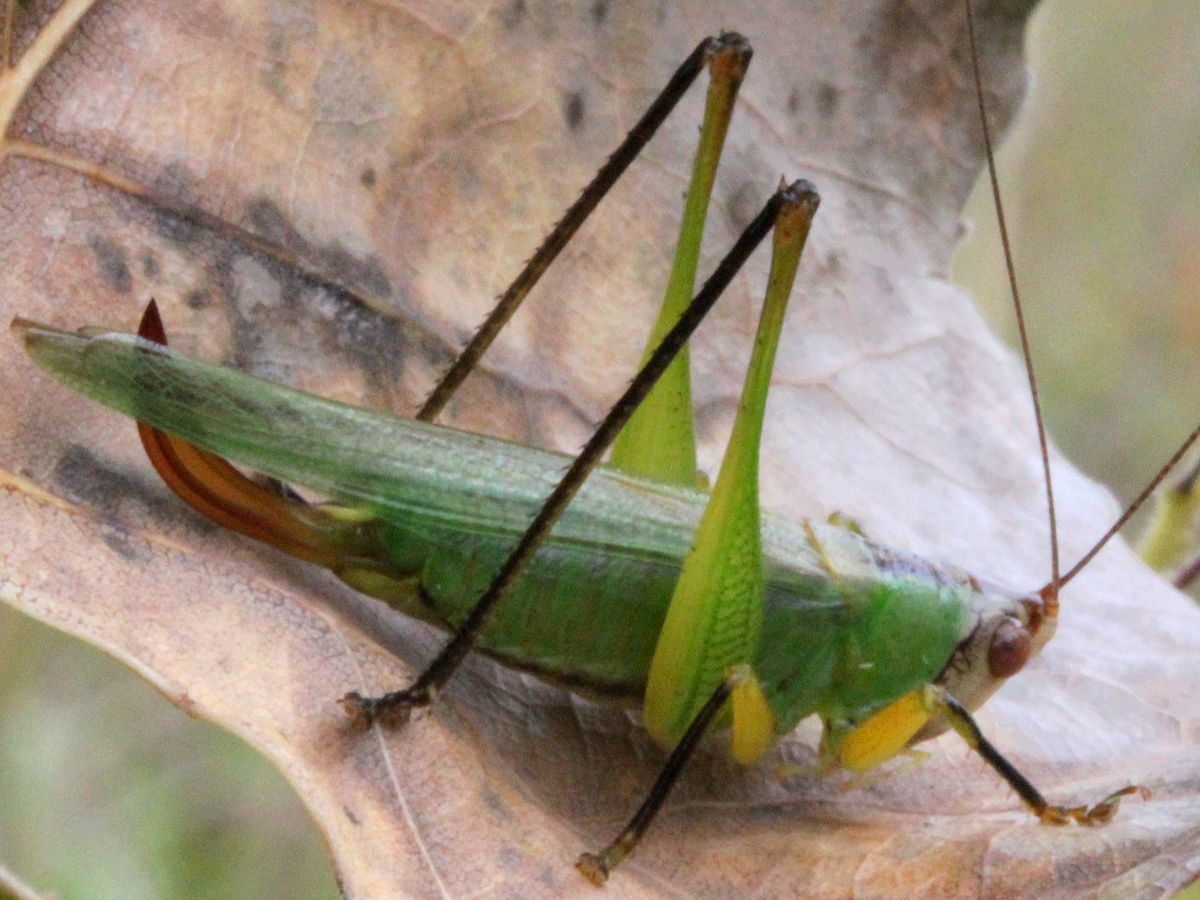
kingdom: Animalia
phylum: Arthropoda
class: Insecta
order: Orthoptera
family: Tettigoniidae
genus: Orchelimum
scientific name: Orchelimum nigripes
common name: Black-legged meadow katydid
